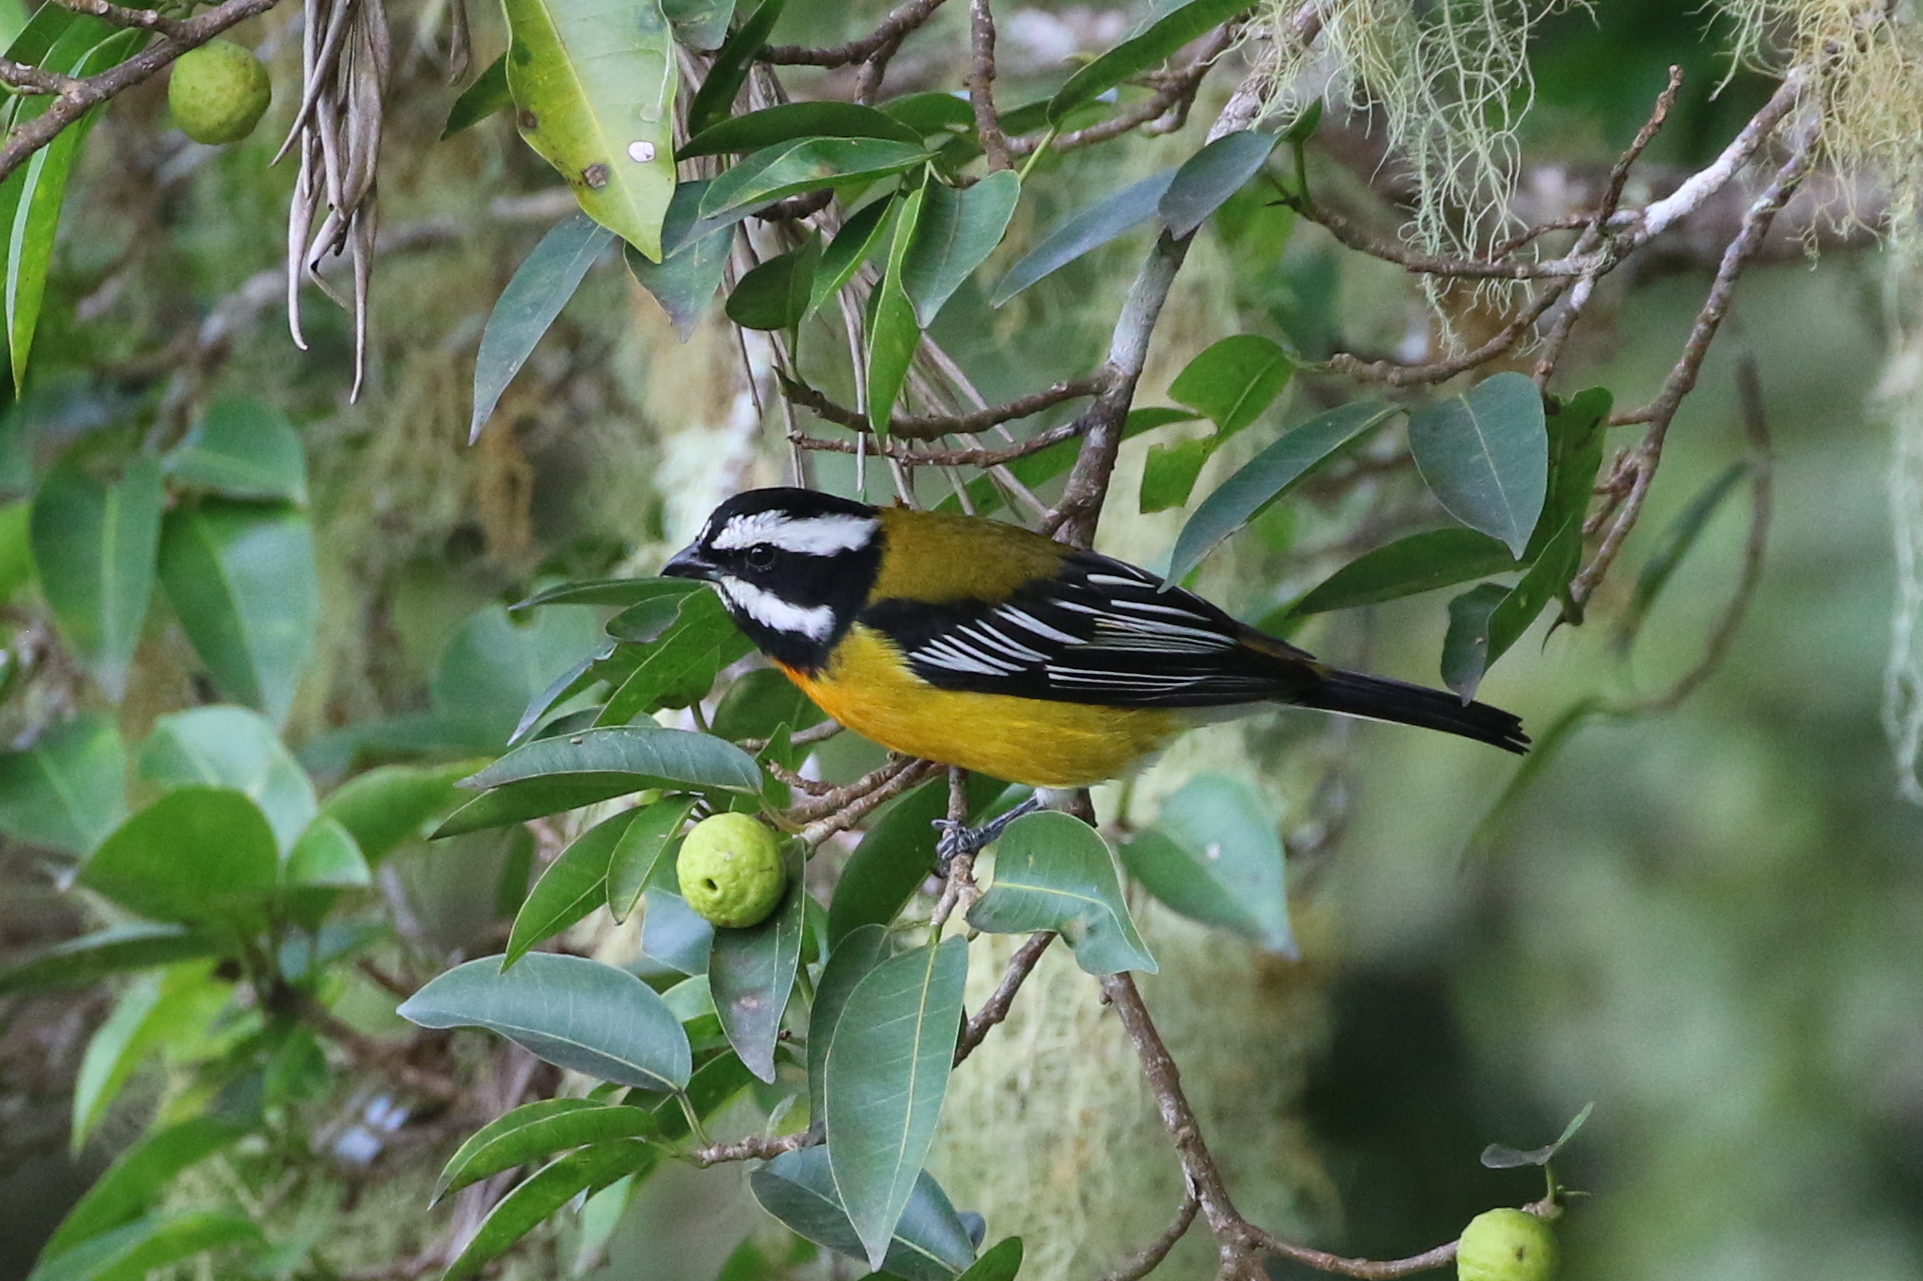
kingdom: Animalia
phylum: Chordata
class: Aves
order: Passeriformes
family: Spindalidae
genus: Spindalis
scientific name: Spindalis nigricephala
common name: Jamaican spindalis
